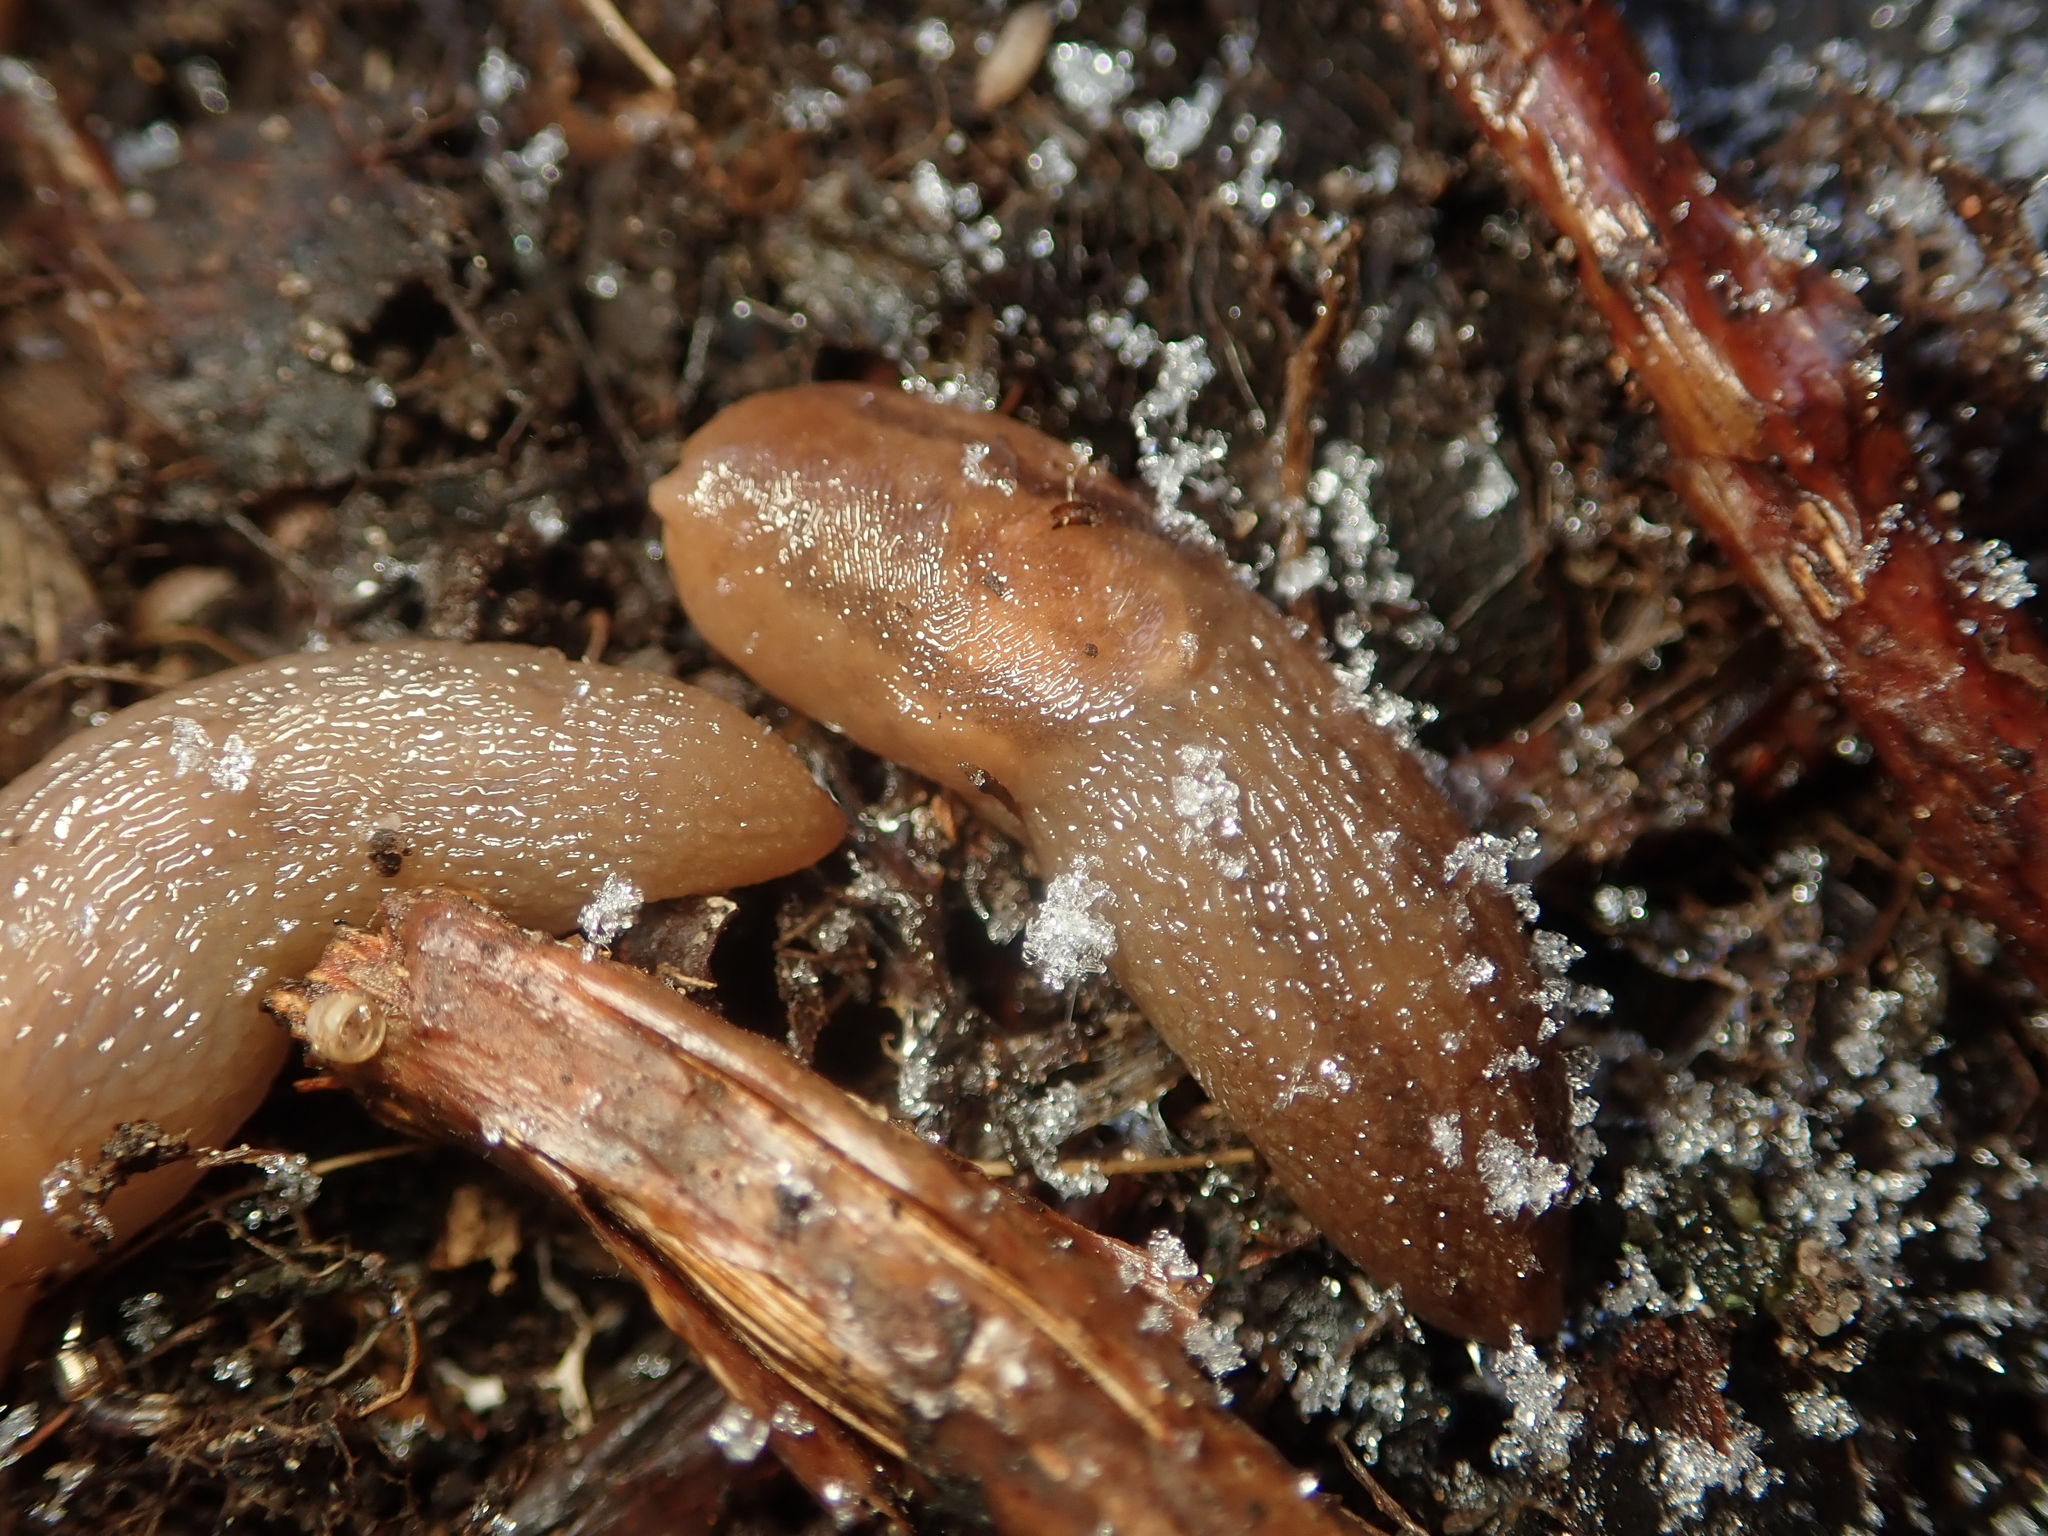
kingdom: Animalia
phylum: Mollusca
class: Gastropoda
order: Stylommatophora
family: Limacidae
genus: Ambigolimax
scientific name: Ambigolimax
